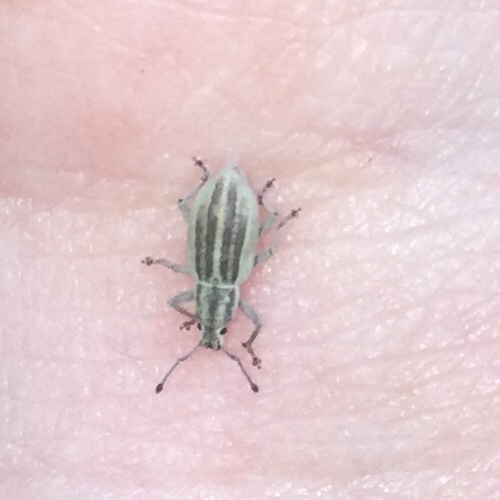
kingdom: Animalia
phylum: Arthropoda
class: Insecta
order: Coleoptera
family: Curculionidae
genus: Aphrastus
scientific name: Aphrastus taeniatus
